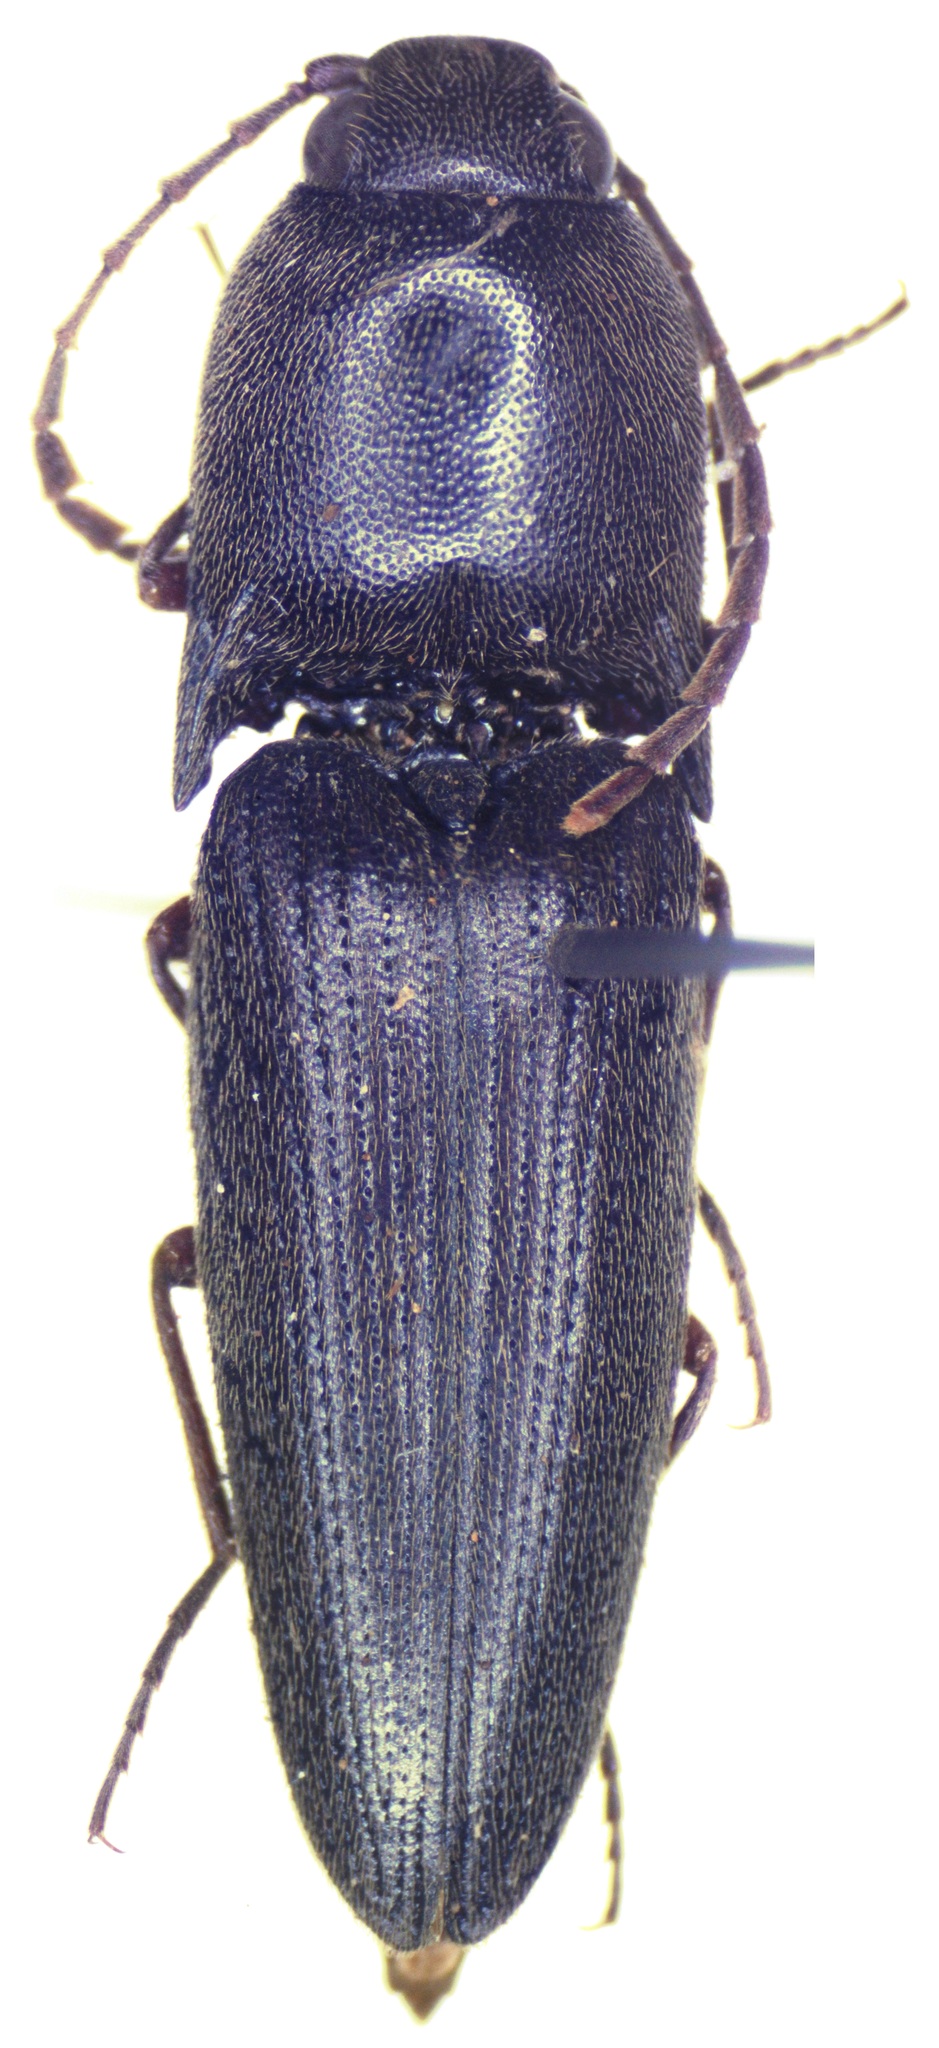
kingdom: Animalia
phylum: Arthropoda
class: Insecta
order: Coleoptera
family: Elateridae
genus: Diplostethus
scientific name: Diplostethus
